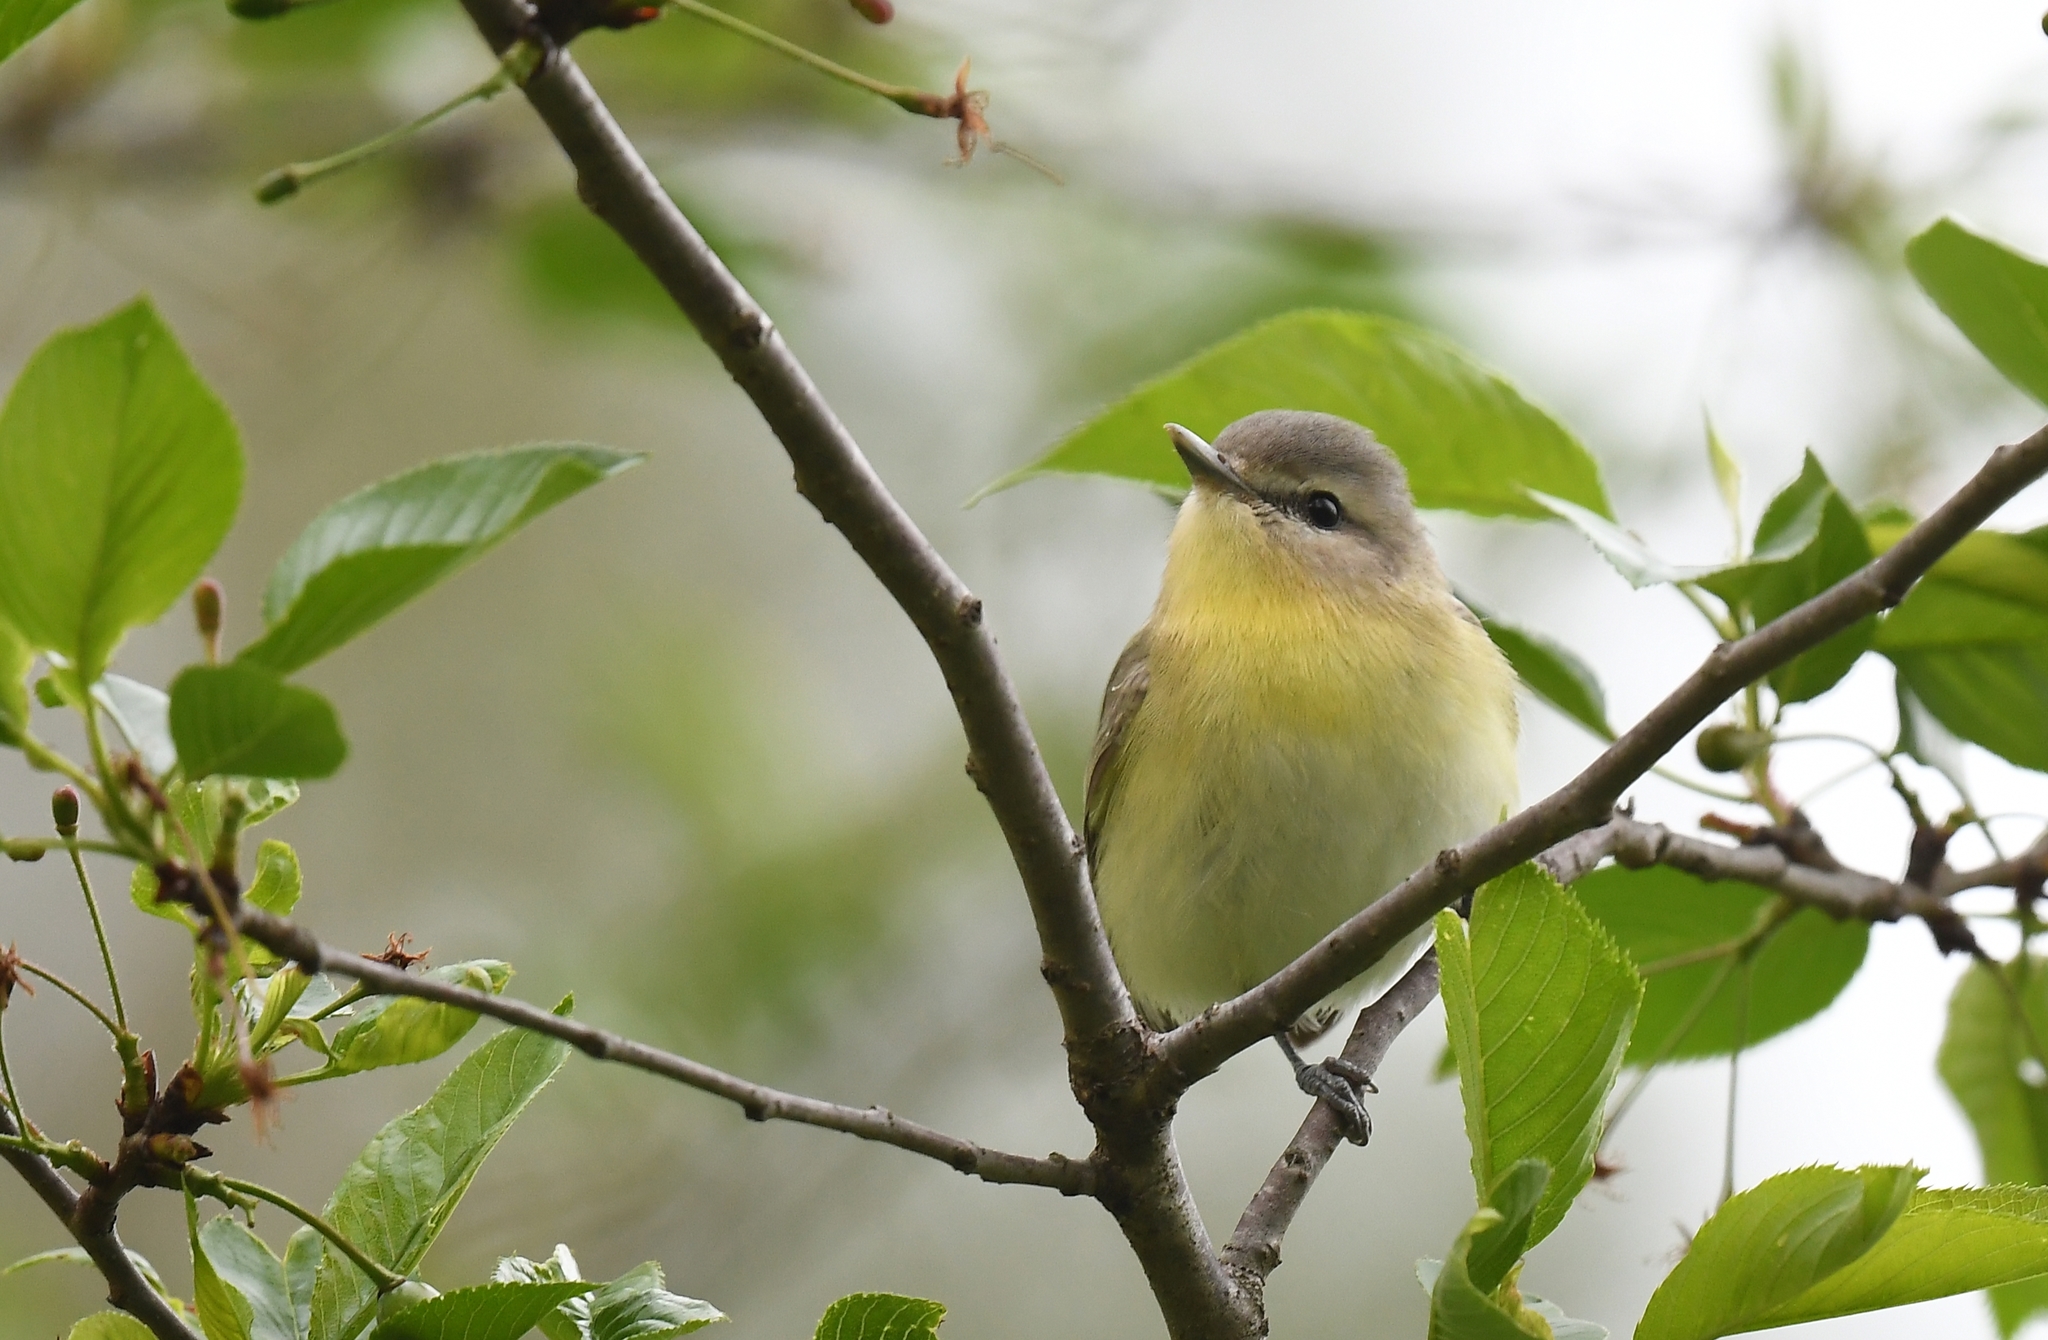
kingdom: Animalia
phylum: Chordata
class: Aves
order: Passeriformes
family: Vireonidae
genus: Vireo
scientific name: Vireo philadelphicus
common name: Philadelphia vireo
